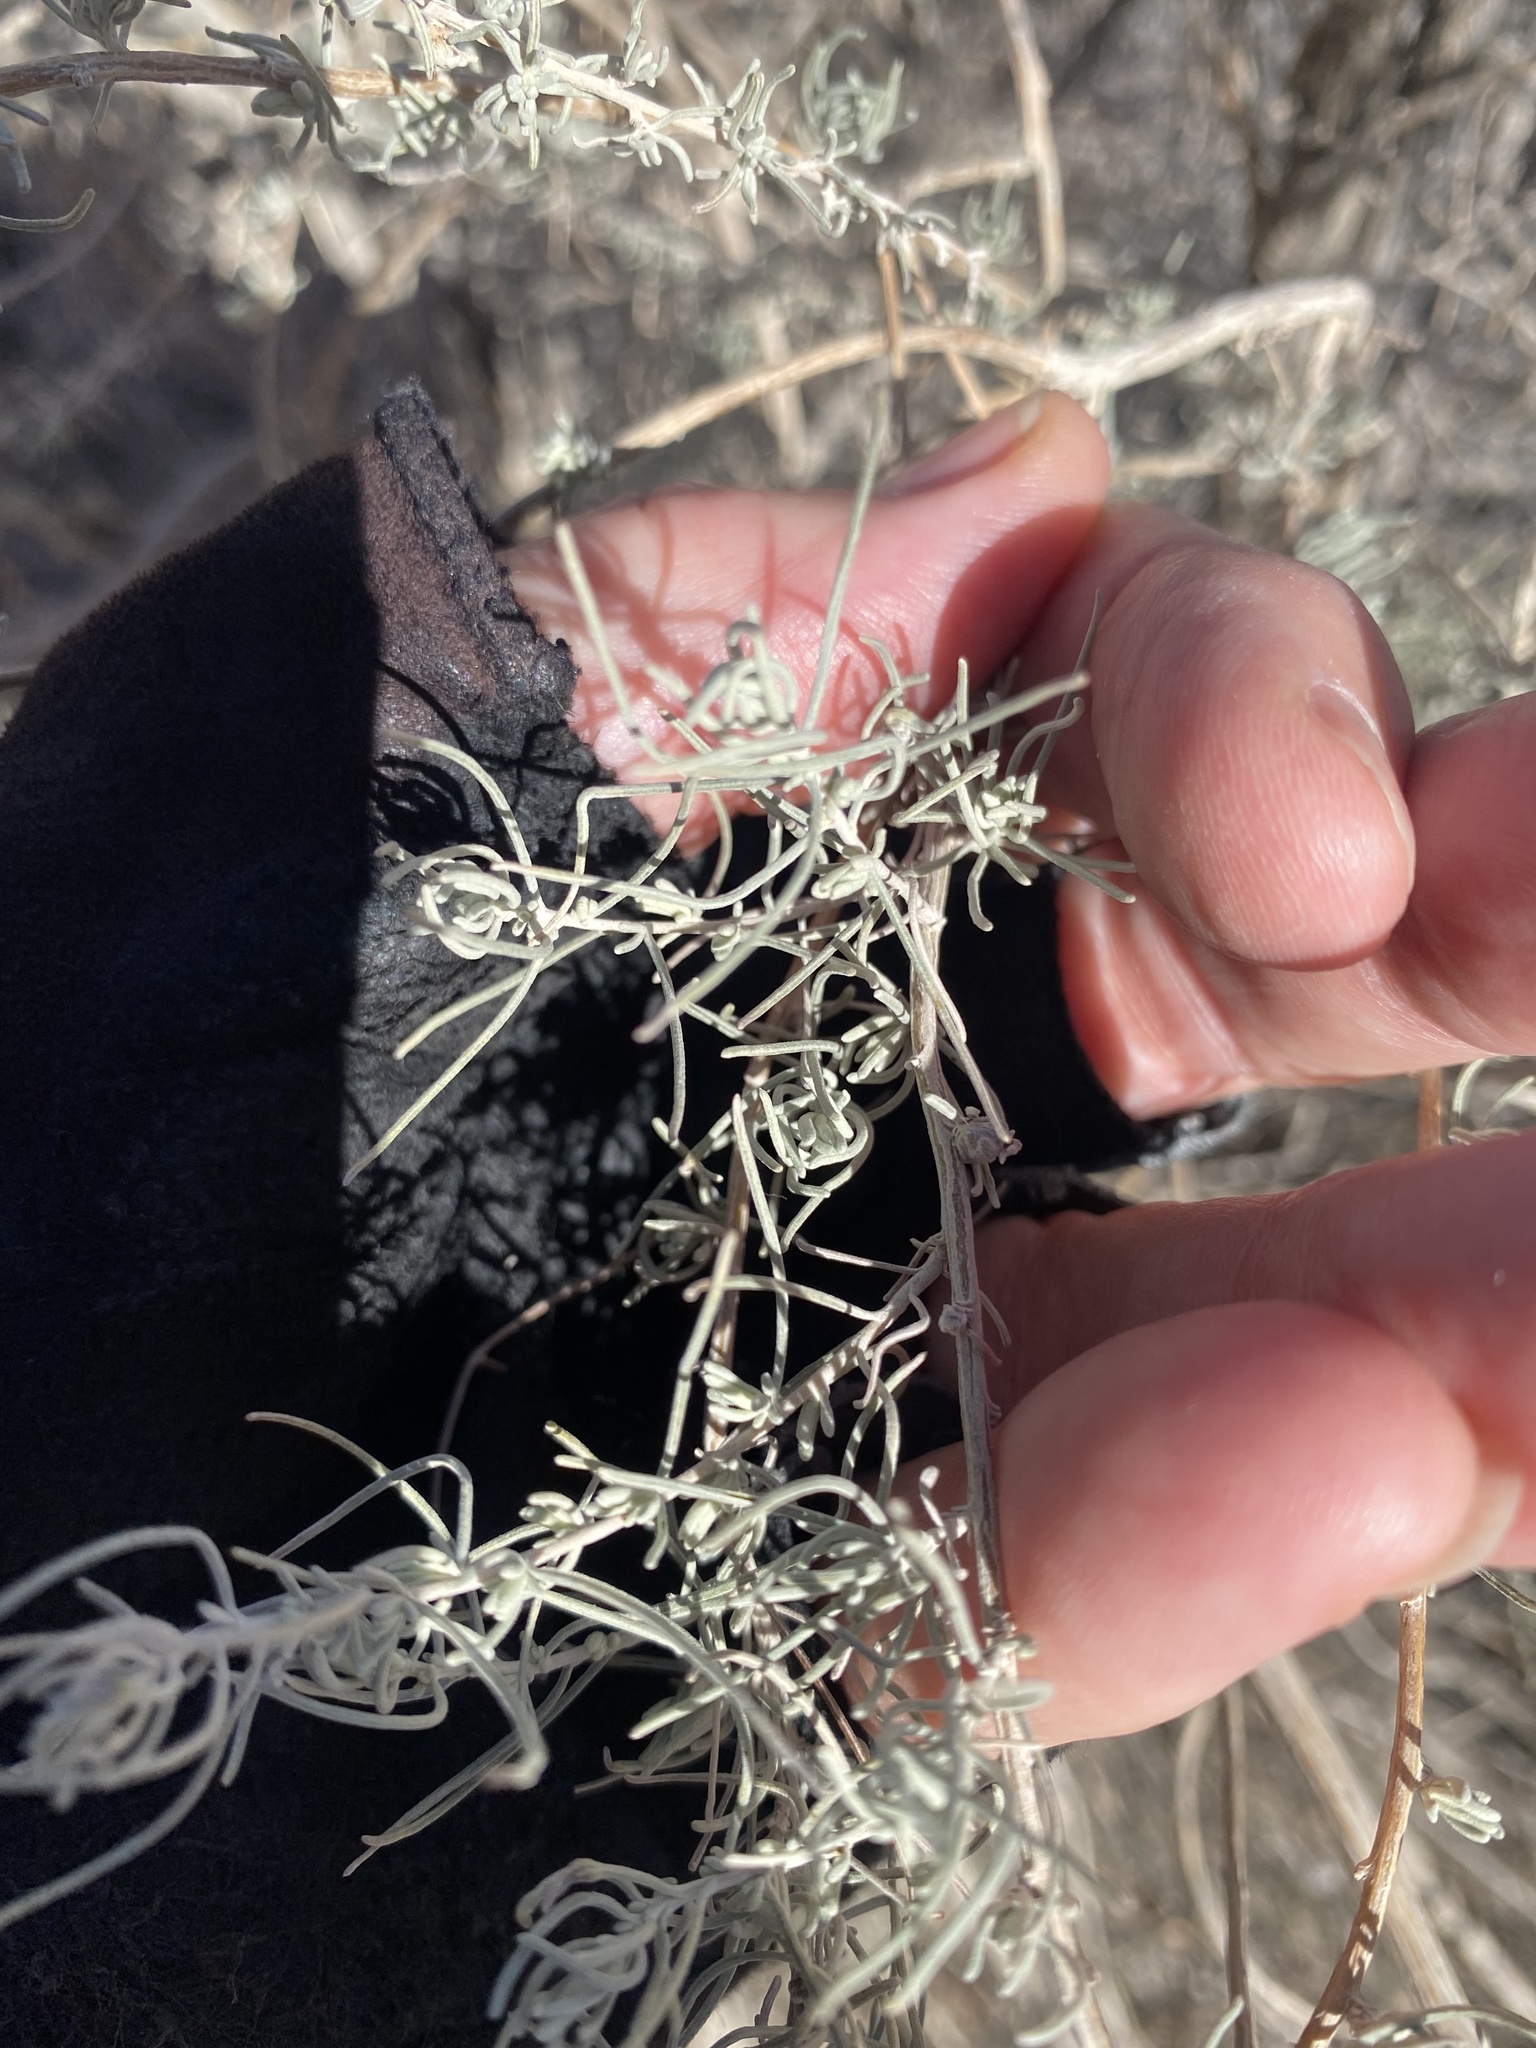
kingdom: Plantae
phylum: Tracheophyta
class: Magnoliopsida
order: Asterales
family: Asteraceae
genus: Artemisia
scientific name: Artemisia filifolia
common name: Sand-sage
